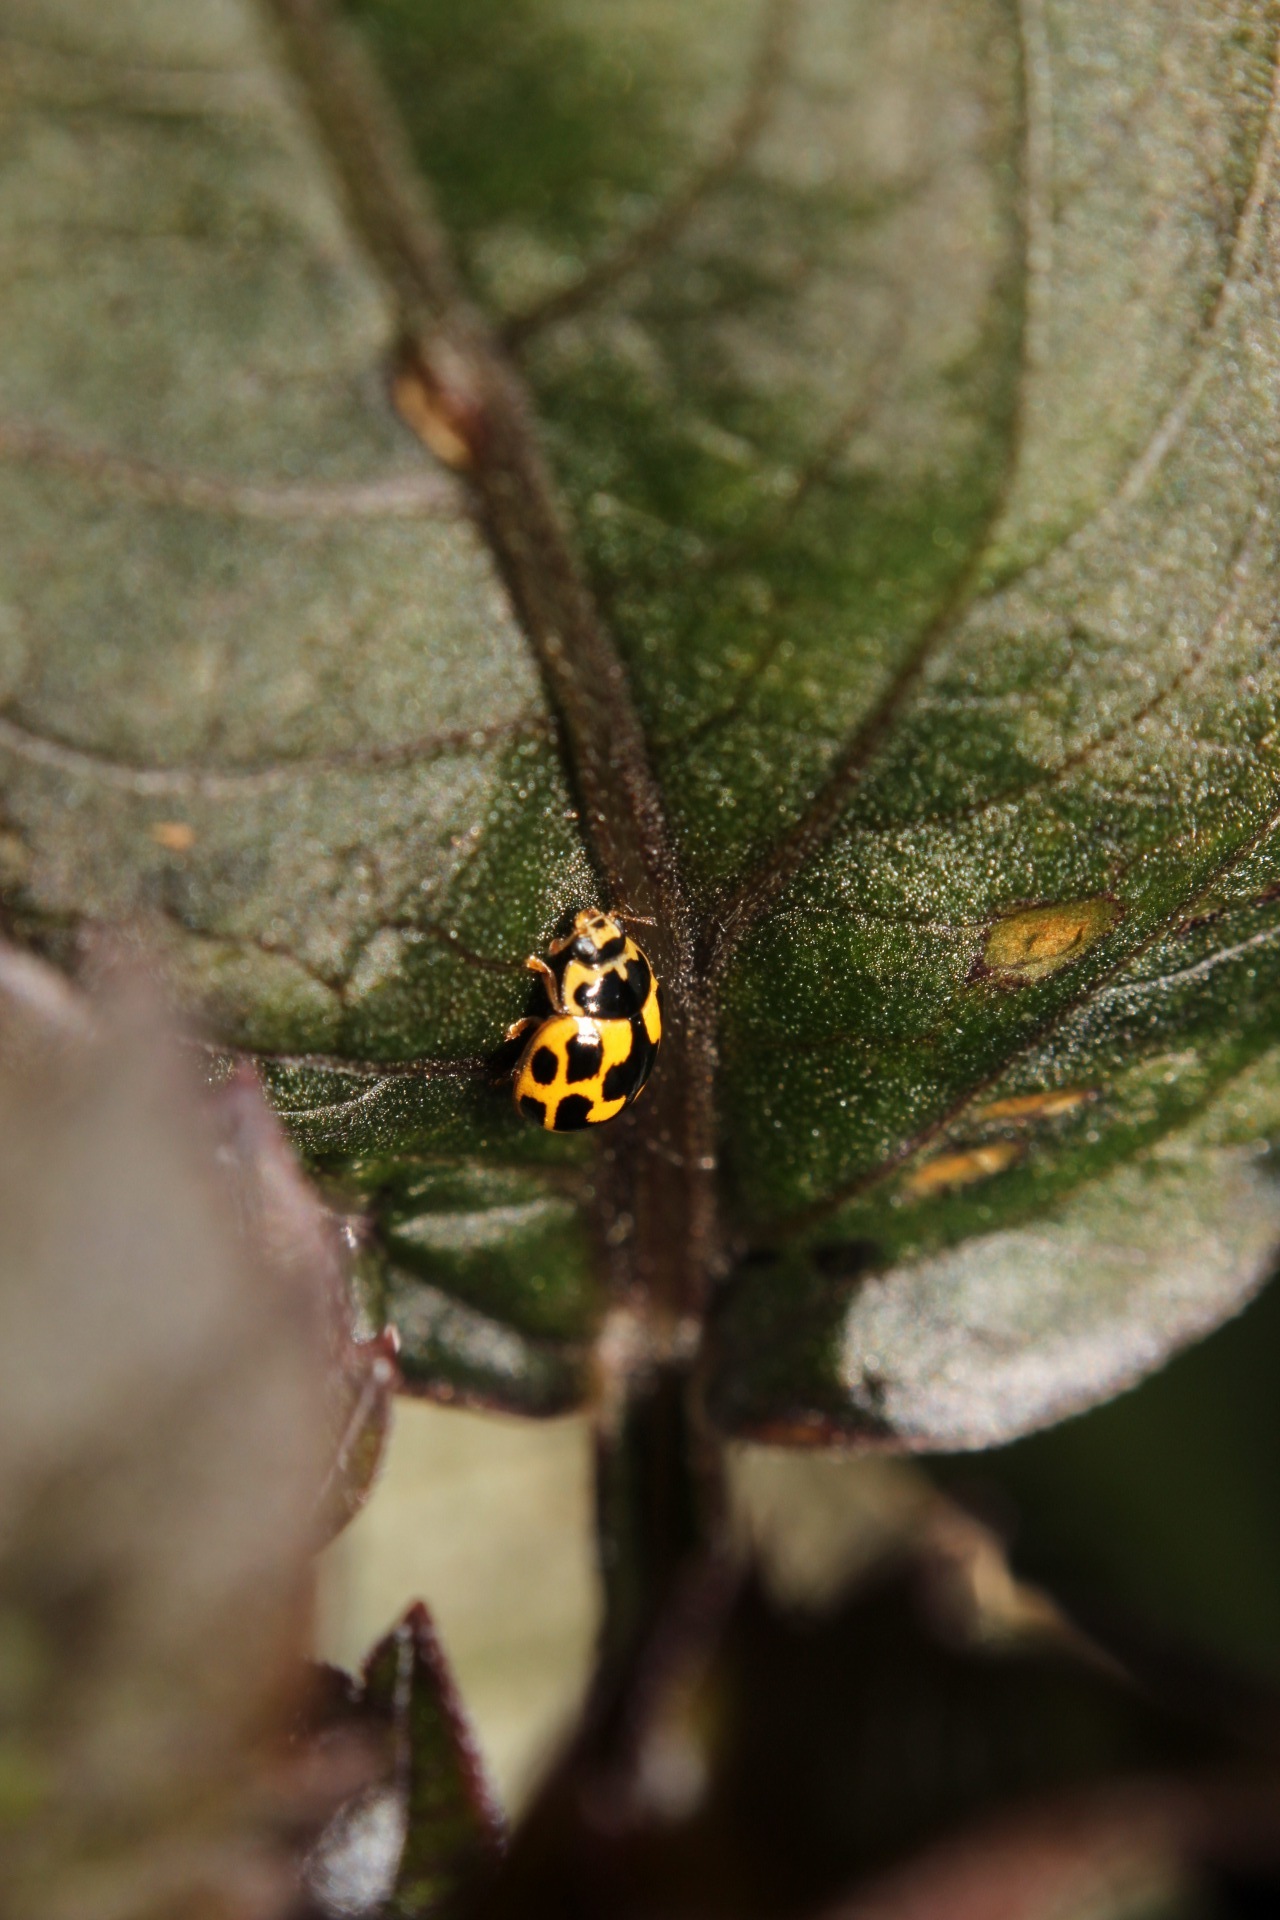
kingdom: Animalia
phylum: Arthropoda
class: Insecta
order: Coleoptera
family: Coccinellidae
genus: Propylaea
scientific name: Propylaea quatuordecimpunctata
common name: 14-spotted ladybird beetle
